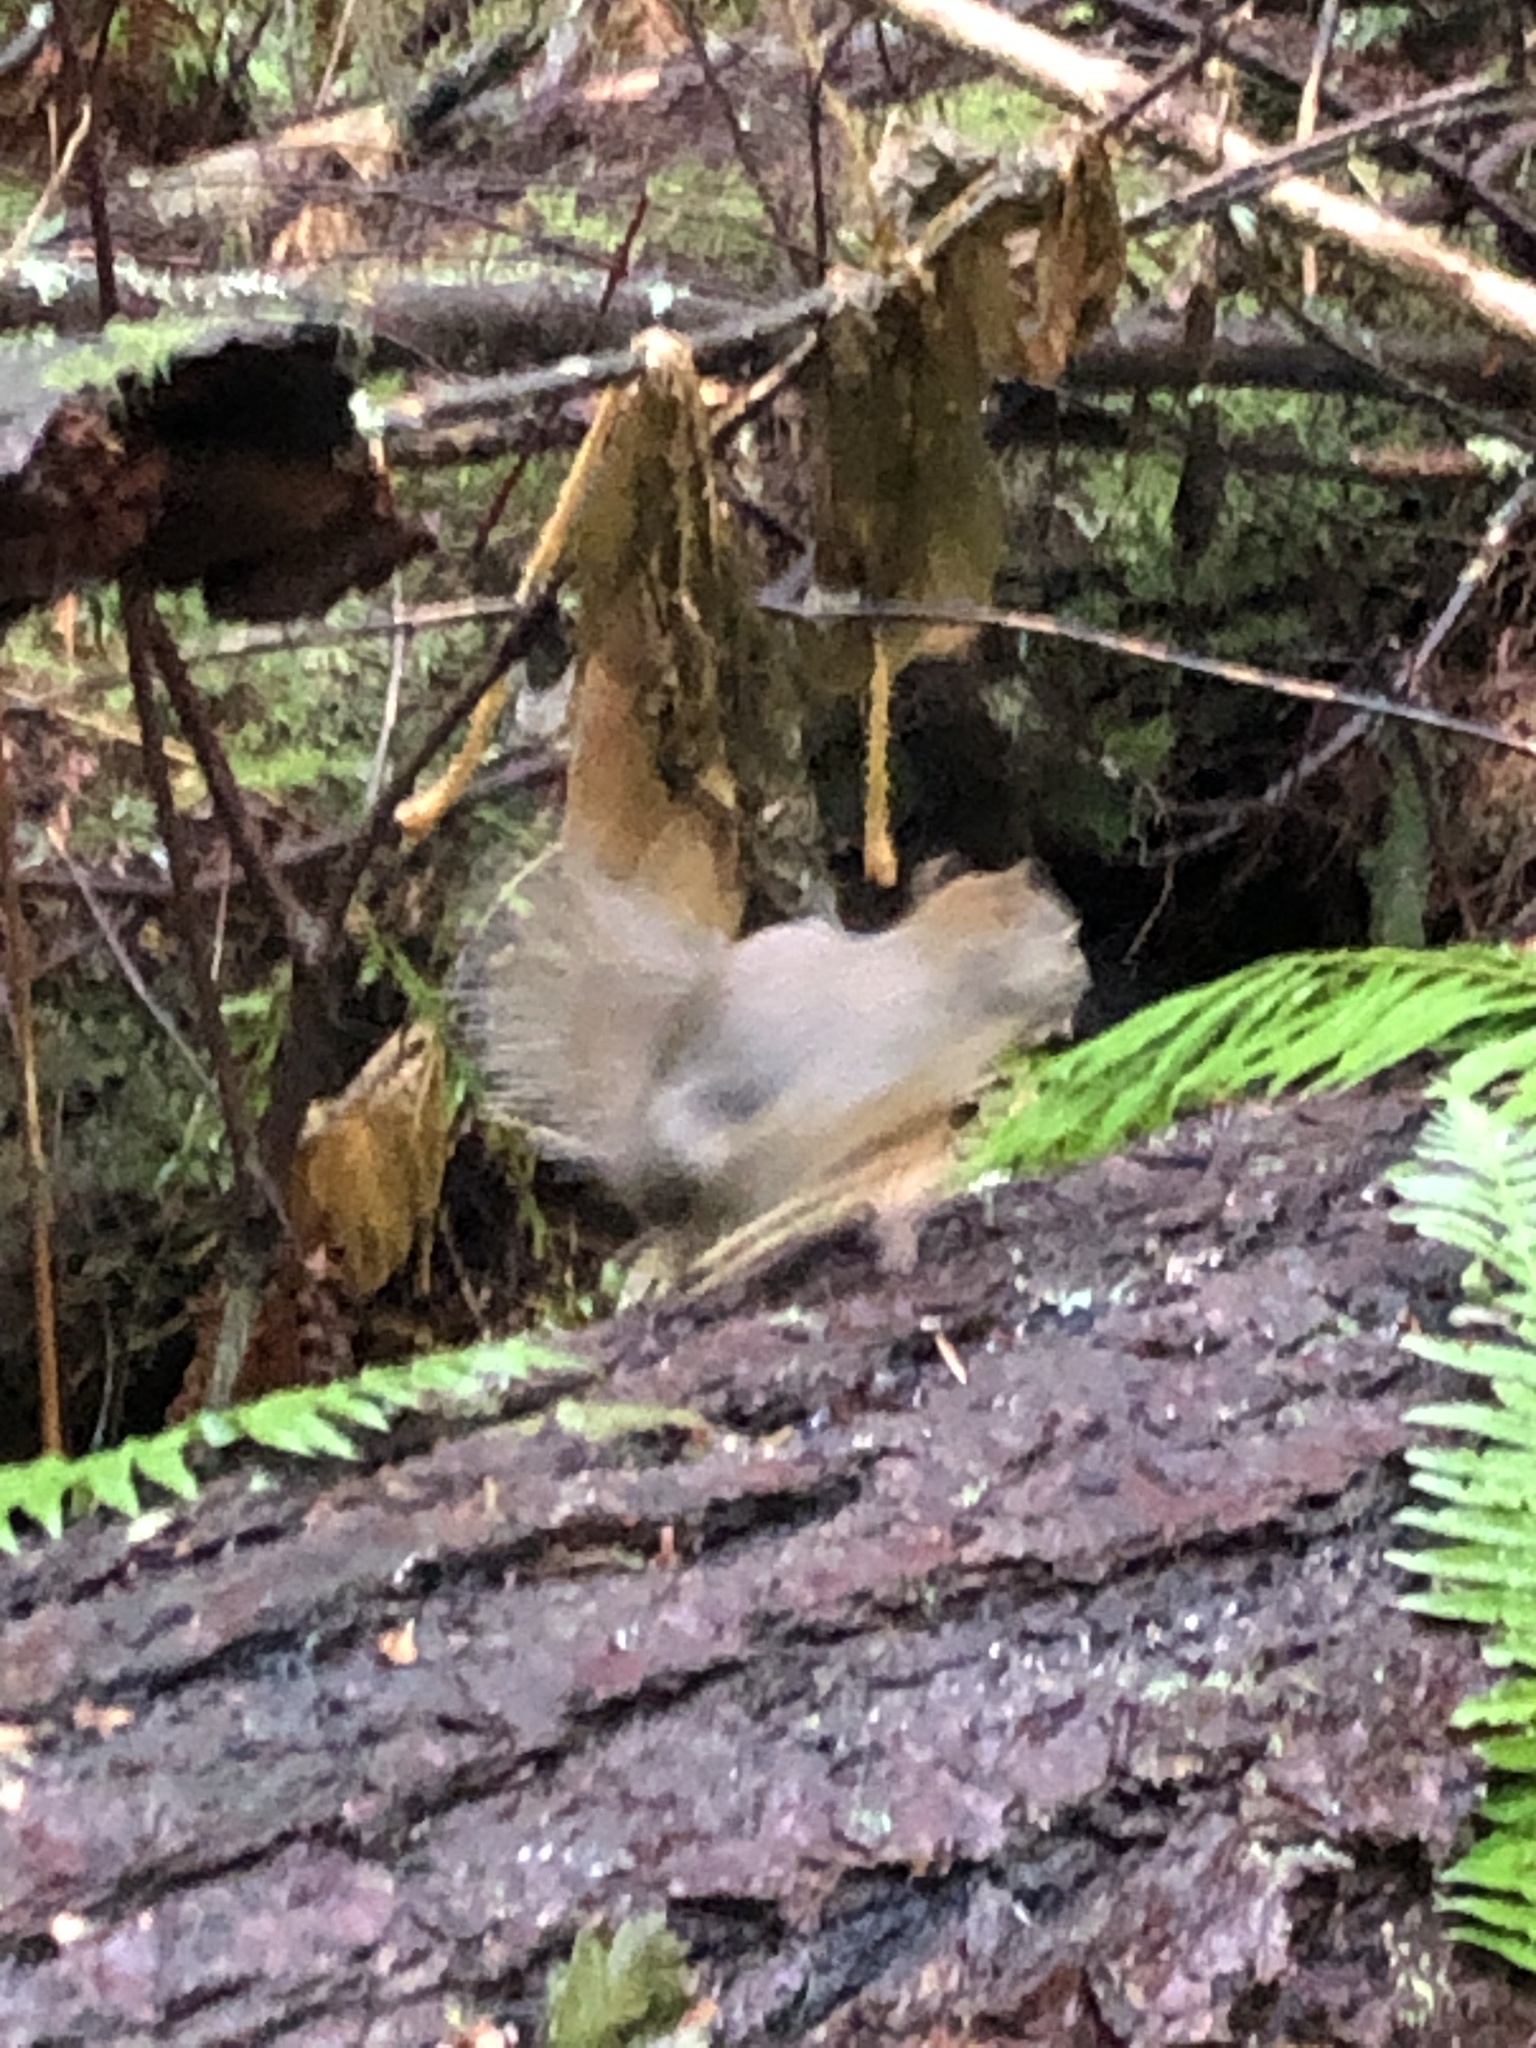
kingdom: Animalia
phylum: Chordata
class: Mammalia
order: Rodentia
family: Sciuridae
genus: Tamiasciurus
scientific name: Tamiasciurus douglasii
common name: Douglas's squirrel
